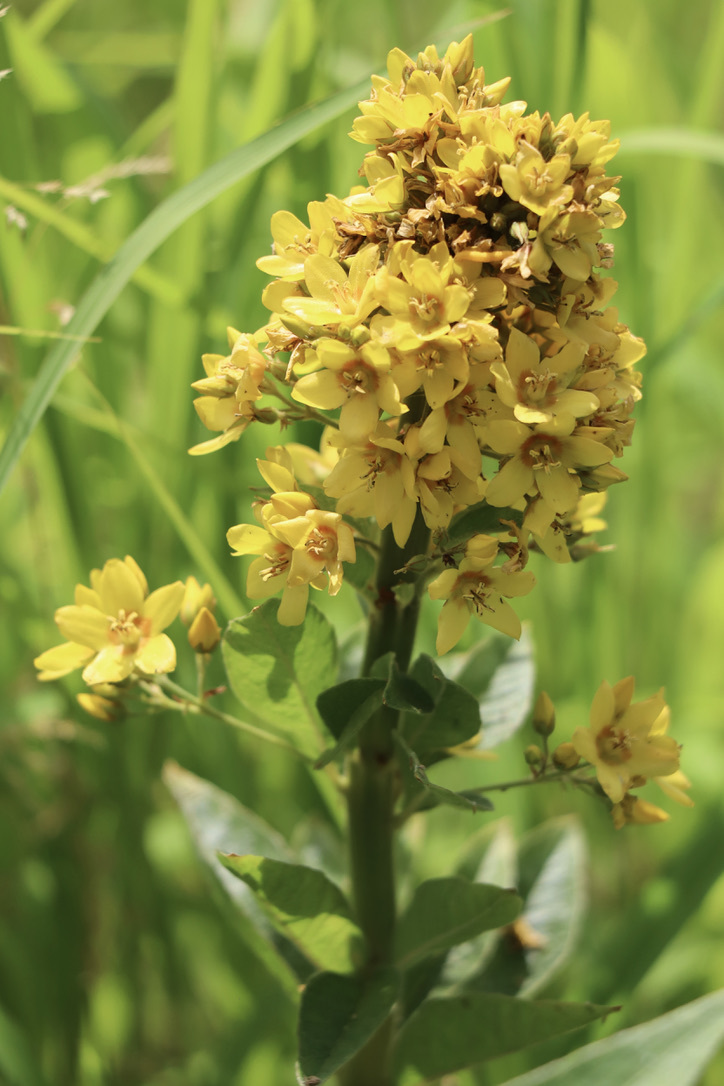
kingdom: Plantae
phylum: Tracheophyta
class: Magnoliopsida
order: Ericales
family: Primulaceae
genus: Lysimachia
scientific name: Lysimachia vulgaris
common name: Yellow loosestrife
